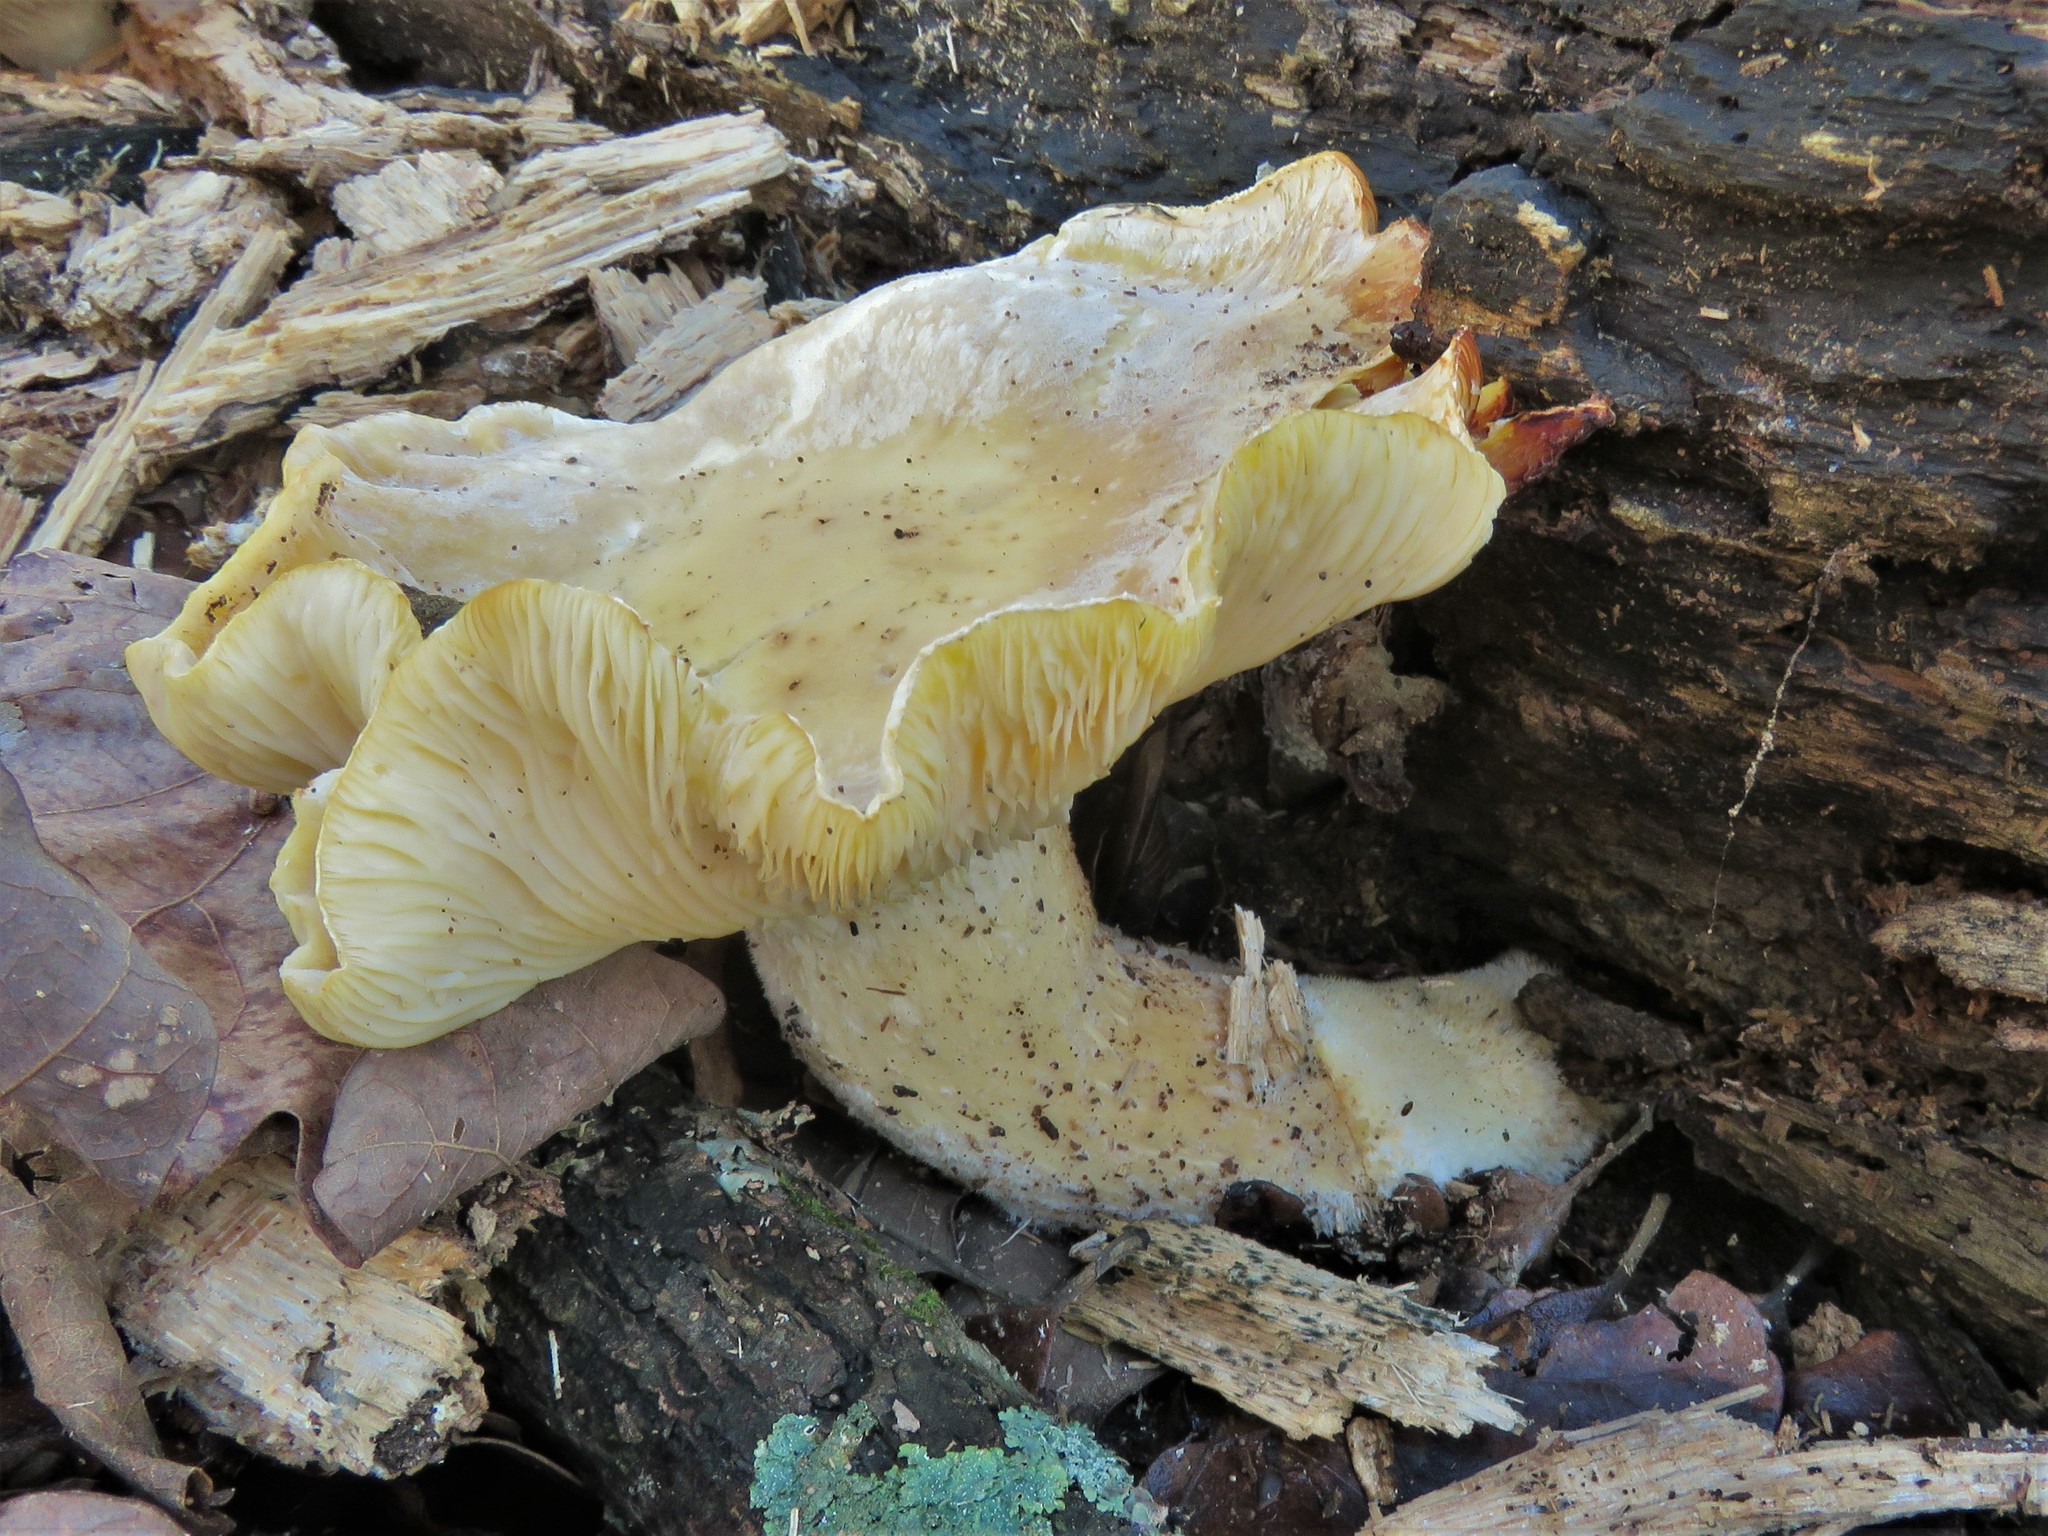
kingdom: Fungi
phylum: Basidiomycota
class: Agaricomycetes
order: Polyporales
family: Polyporaceae
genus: Lentinus
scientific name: Lentinus levis
